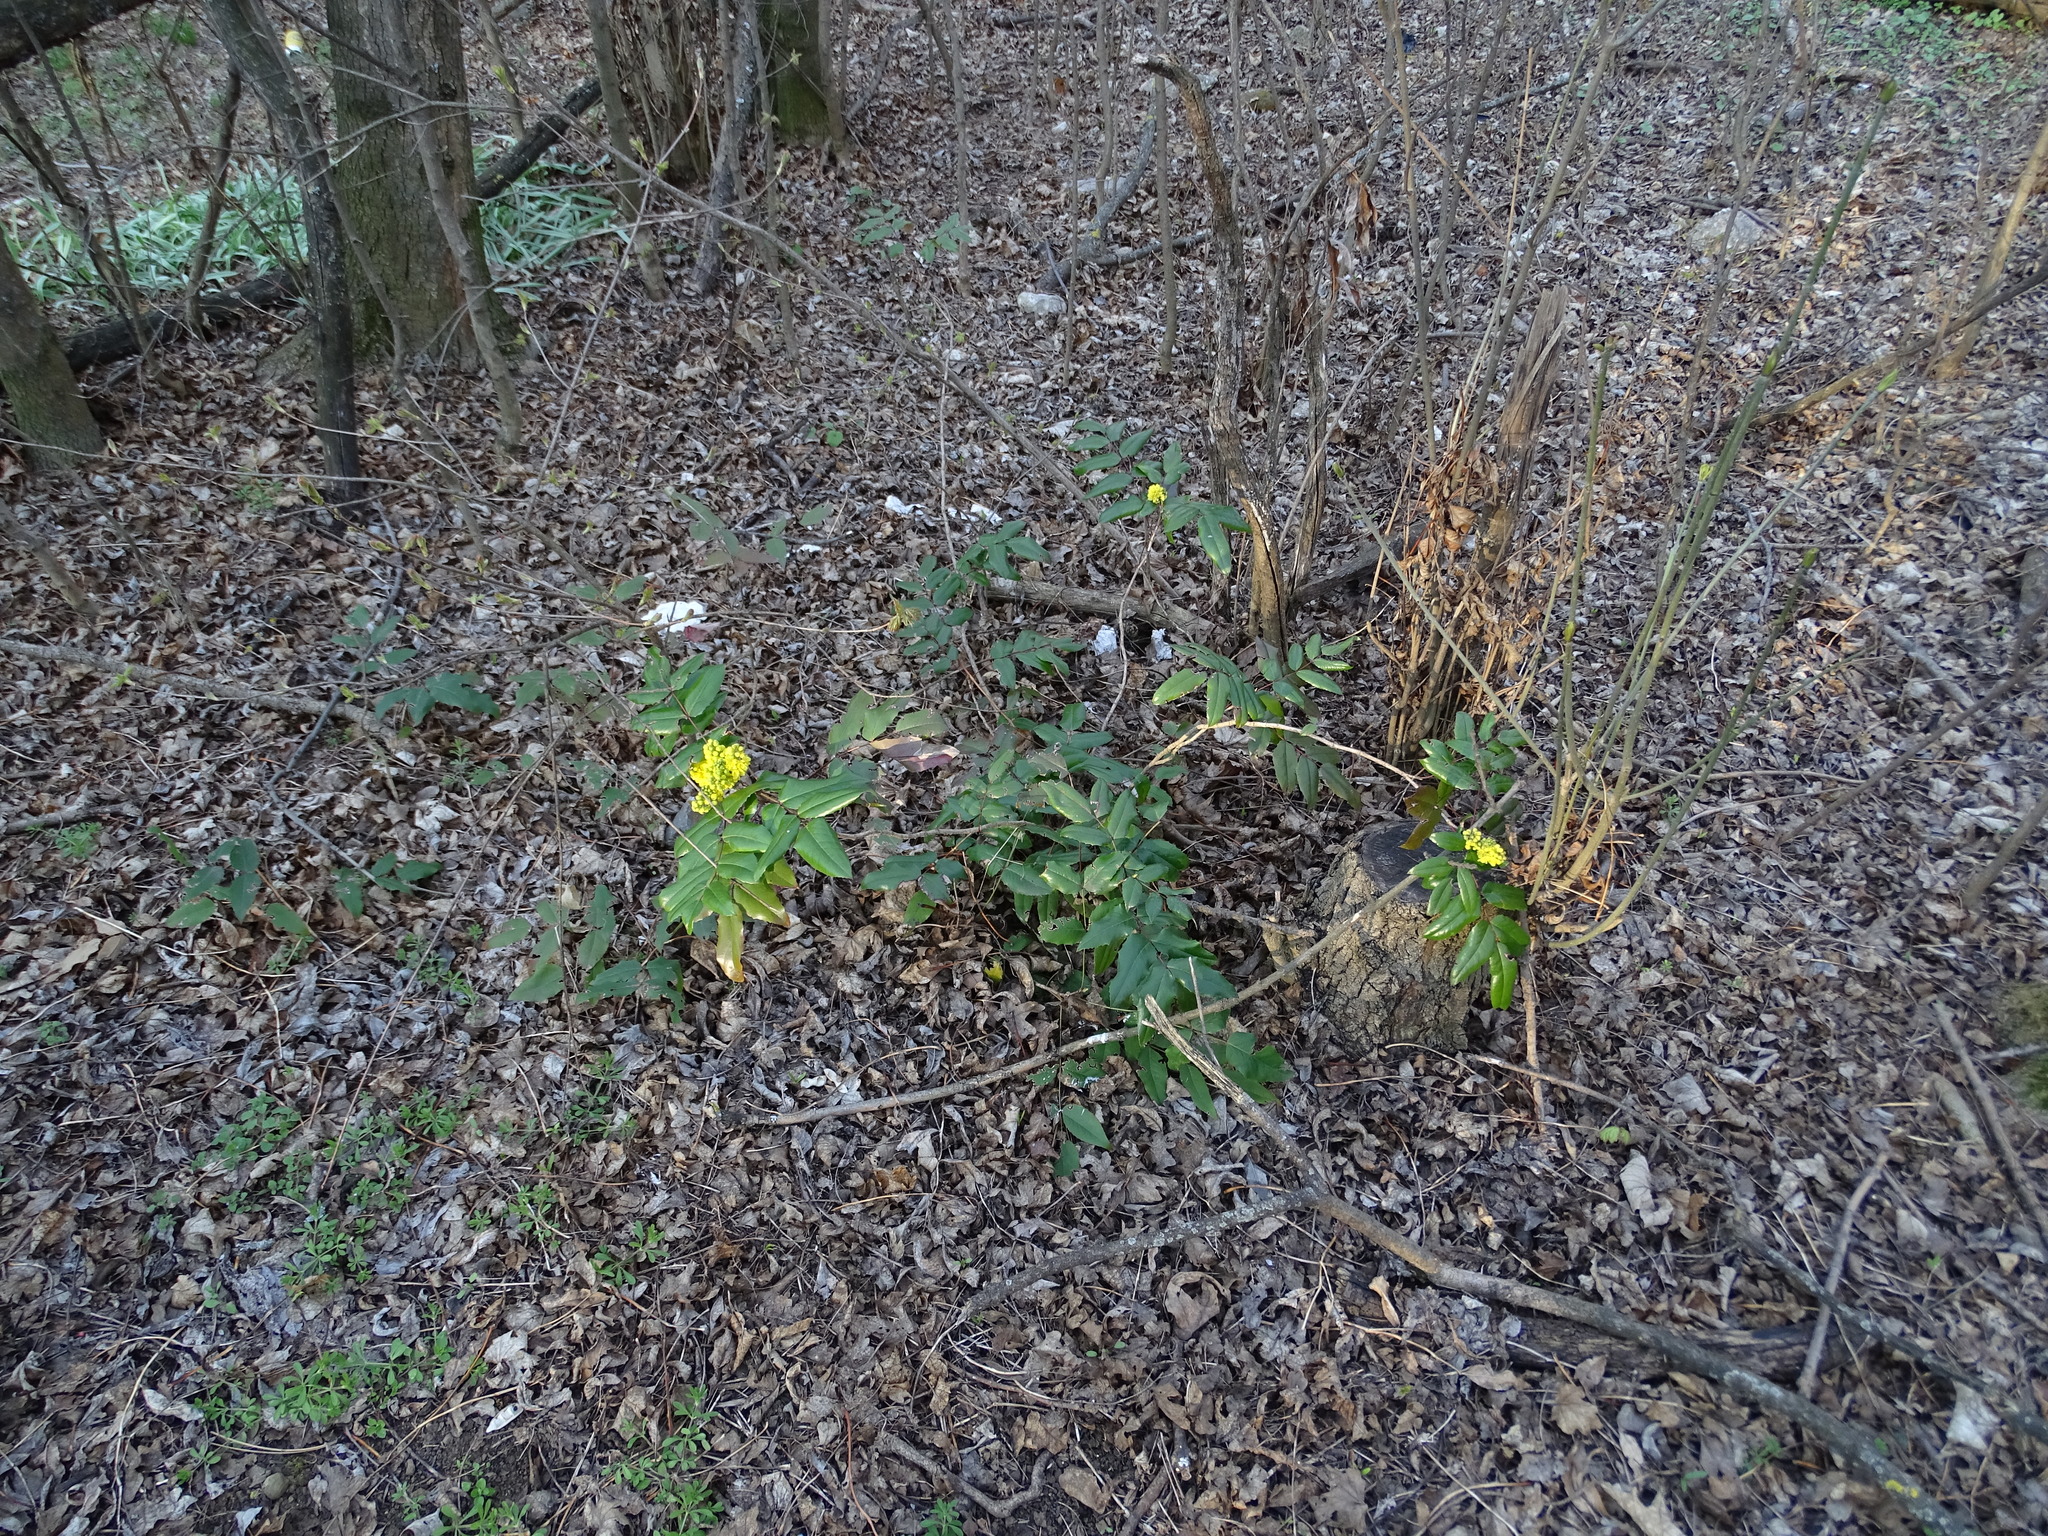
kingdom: Plantae
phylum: Tracheophyta
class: Magnoliopsida
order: Ranunculales
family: Berberidaceae
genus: Mahonia
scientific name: Mahonia aquifolium
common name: Oregon-grape
